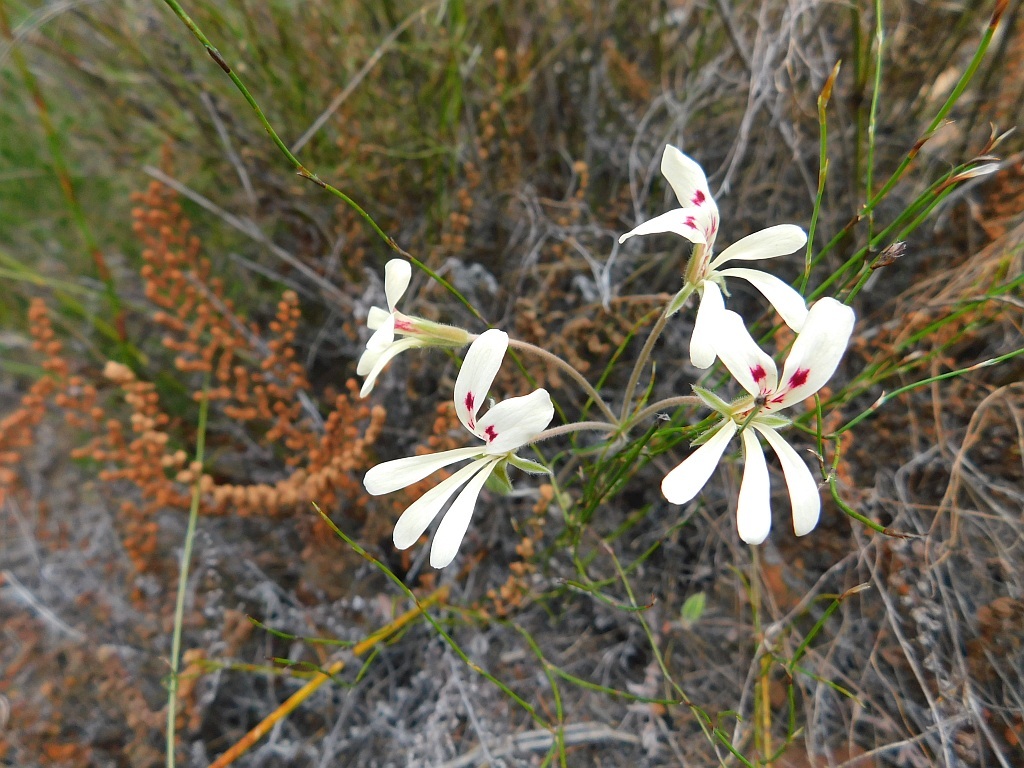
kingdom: Plantae
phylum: Tracheophyta
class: Magnoliopsida
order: Geraniales
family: Geraniaceae
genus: Pelargonium
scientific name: Pelargonium pinnatum
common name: Pinnated pelargonium
